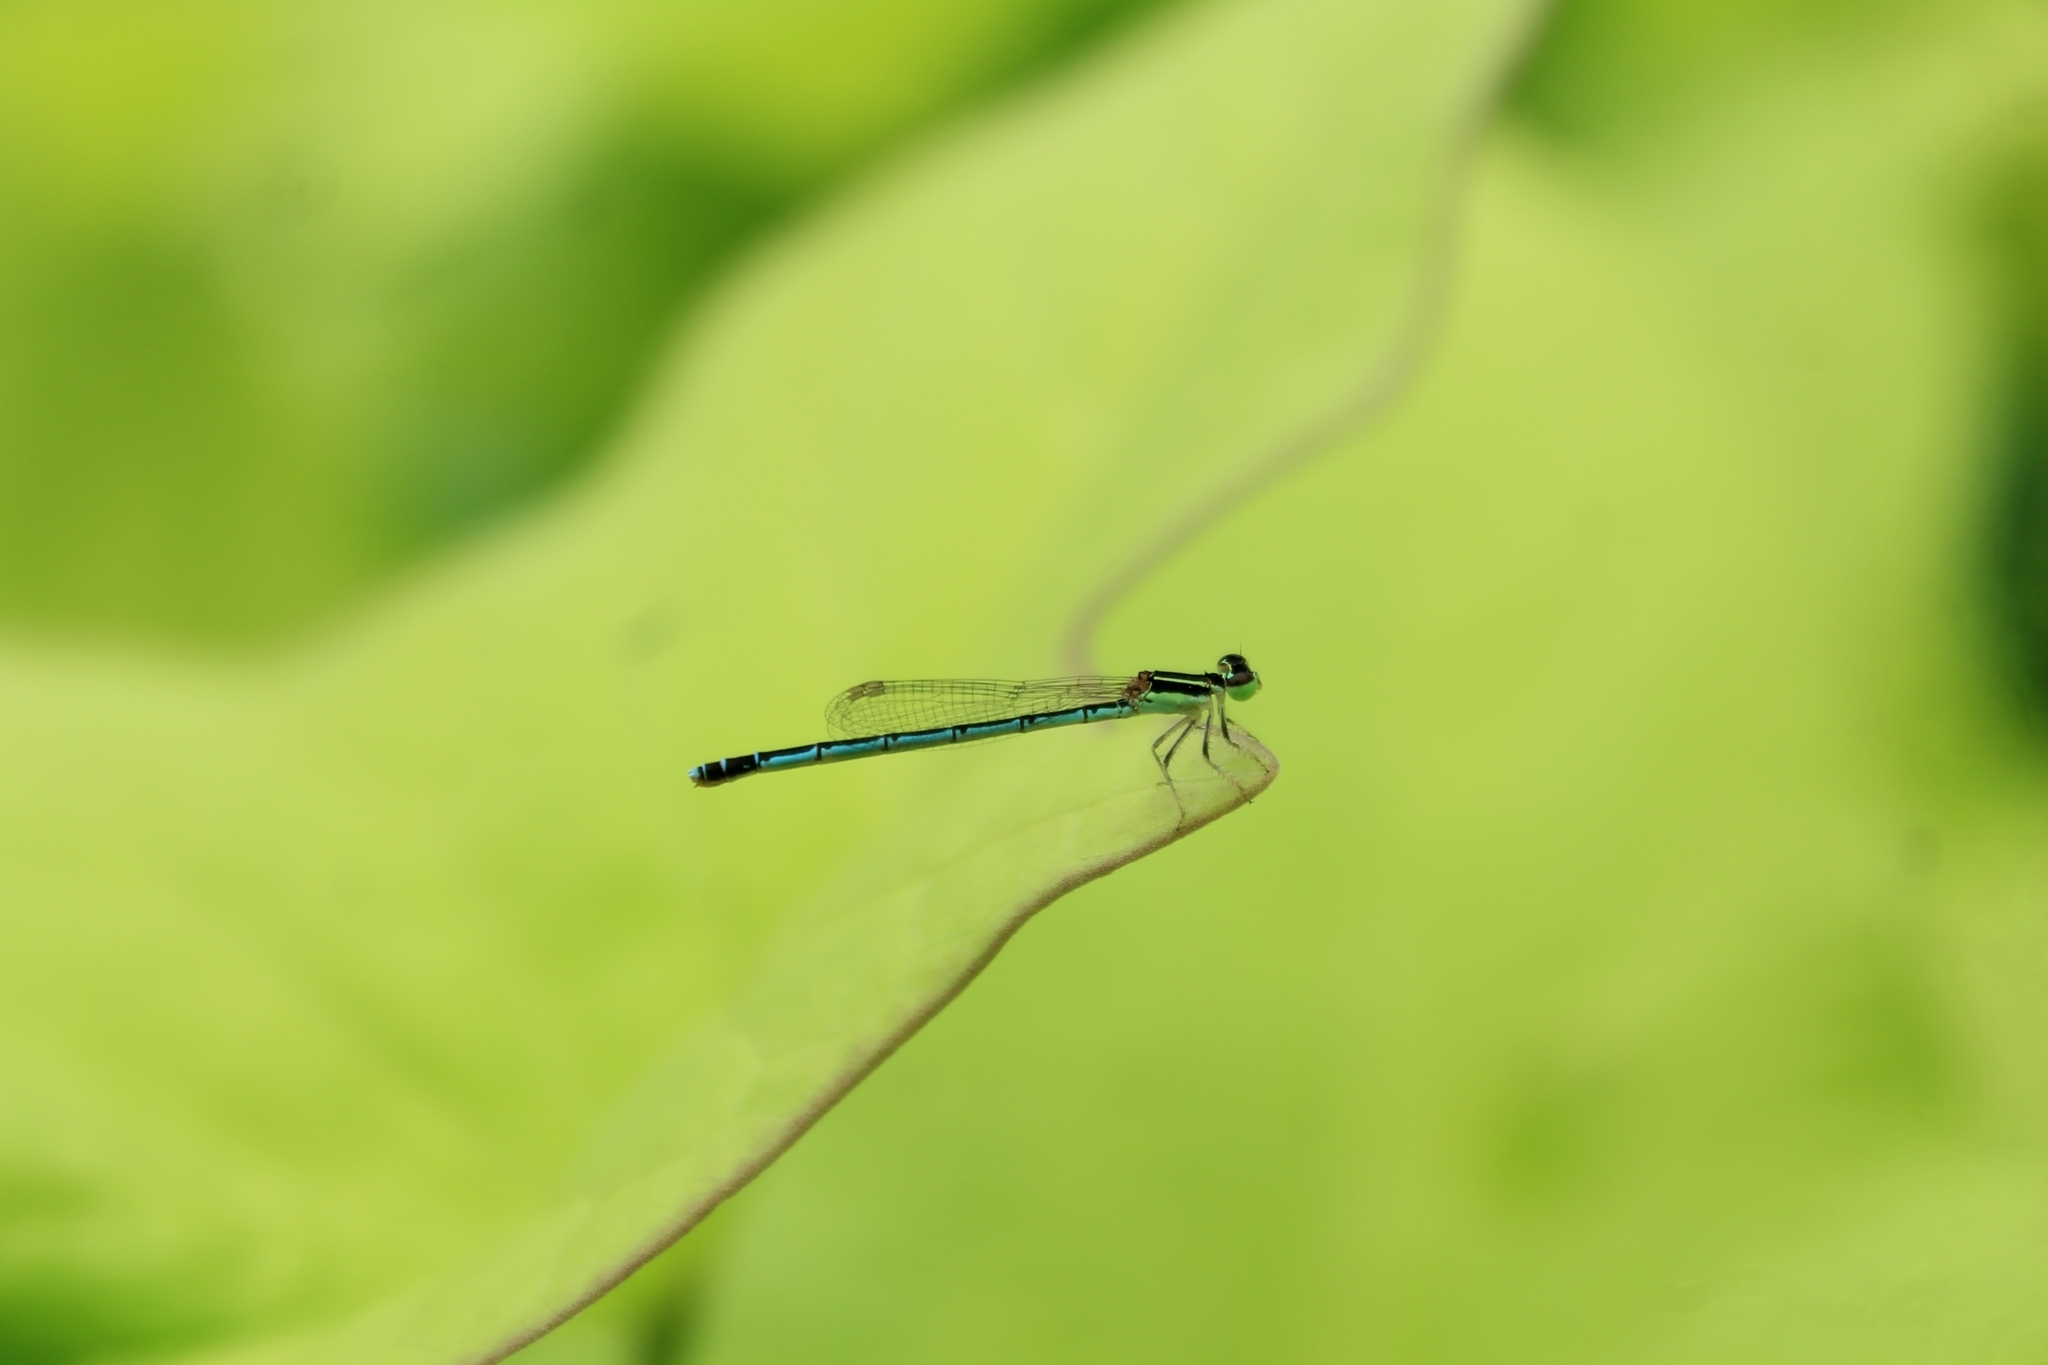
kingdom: Animalia
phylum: Arthropoda
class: Insecta
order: Odonata
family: Coenagrionidae
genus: Agriocnemis
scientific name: Agriocnemis pieris
